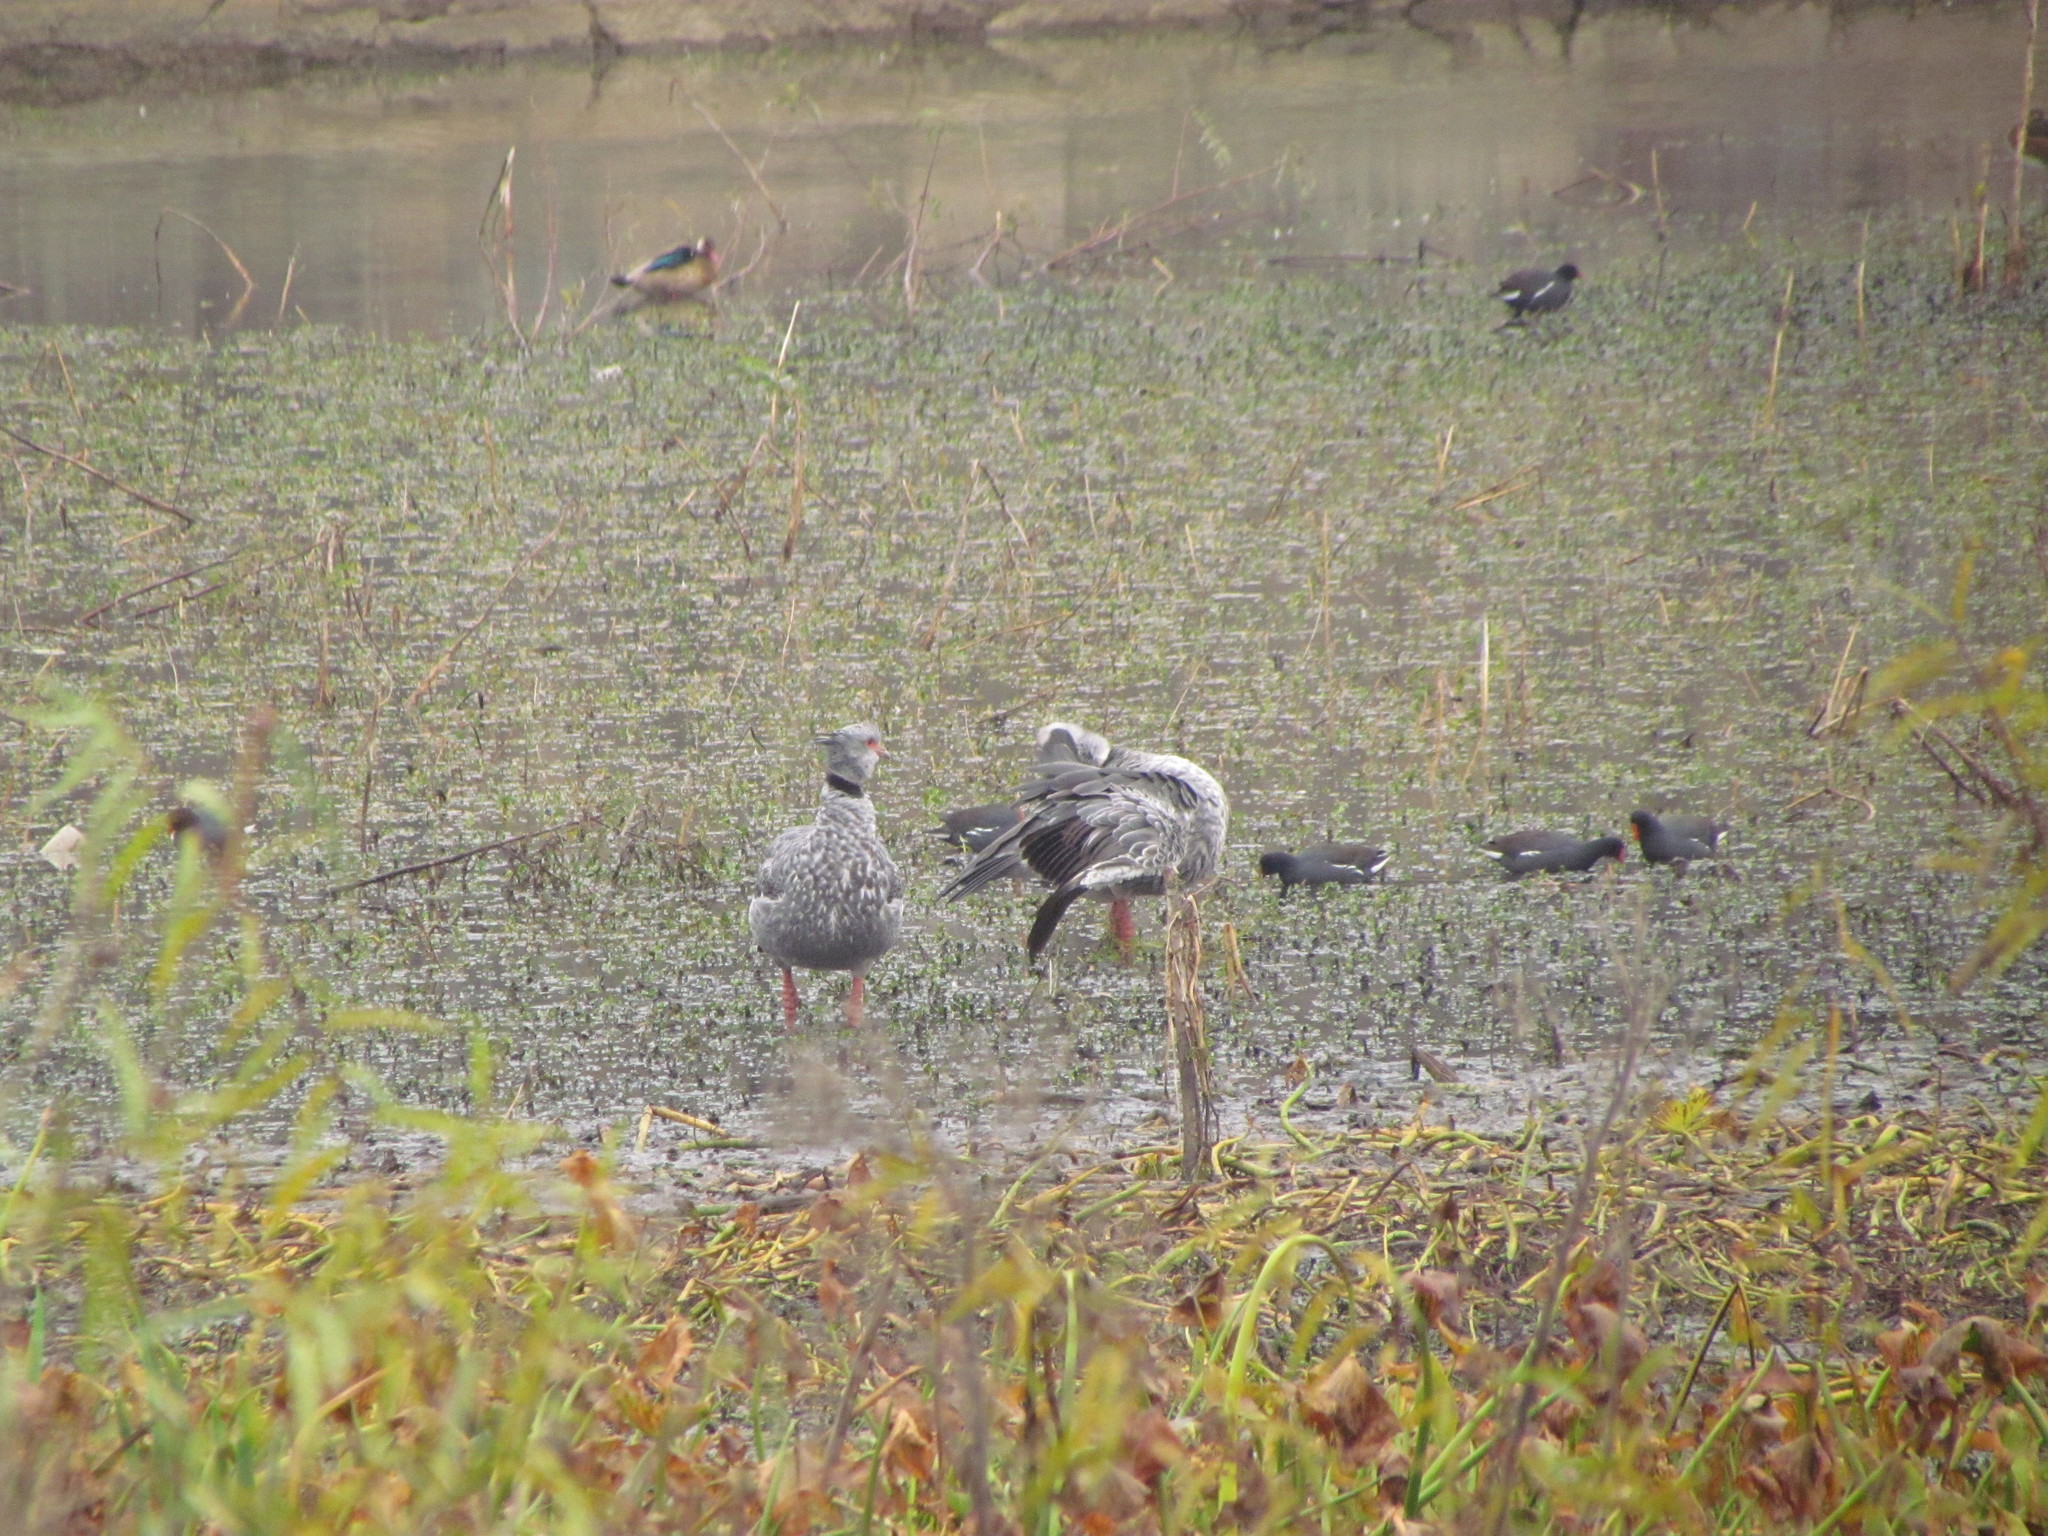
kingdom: Animalia
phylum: Chordata
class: Aves
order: Anseriformes
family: Anhimidae
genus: Chauna
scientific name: Chauna torquata
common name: Southern screamer
